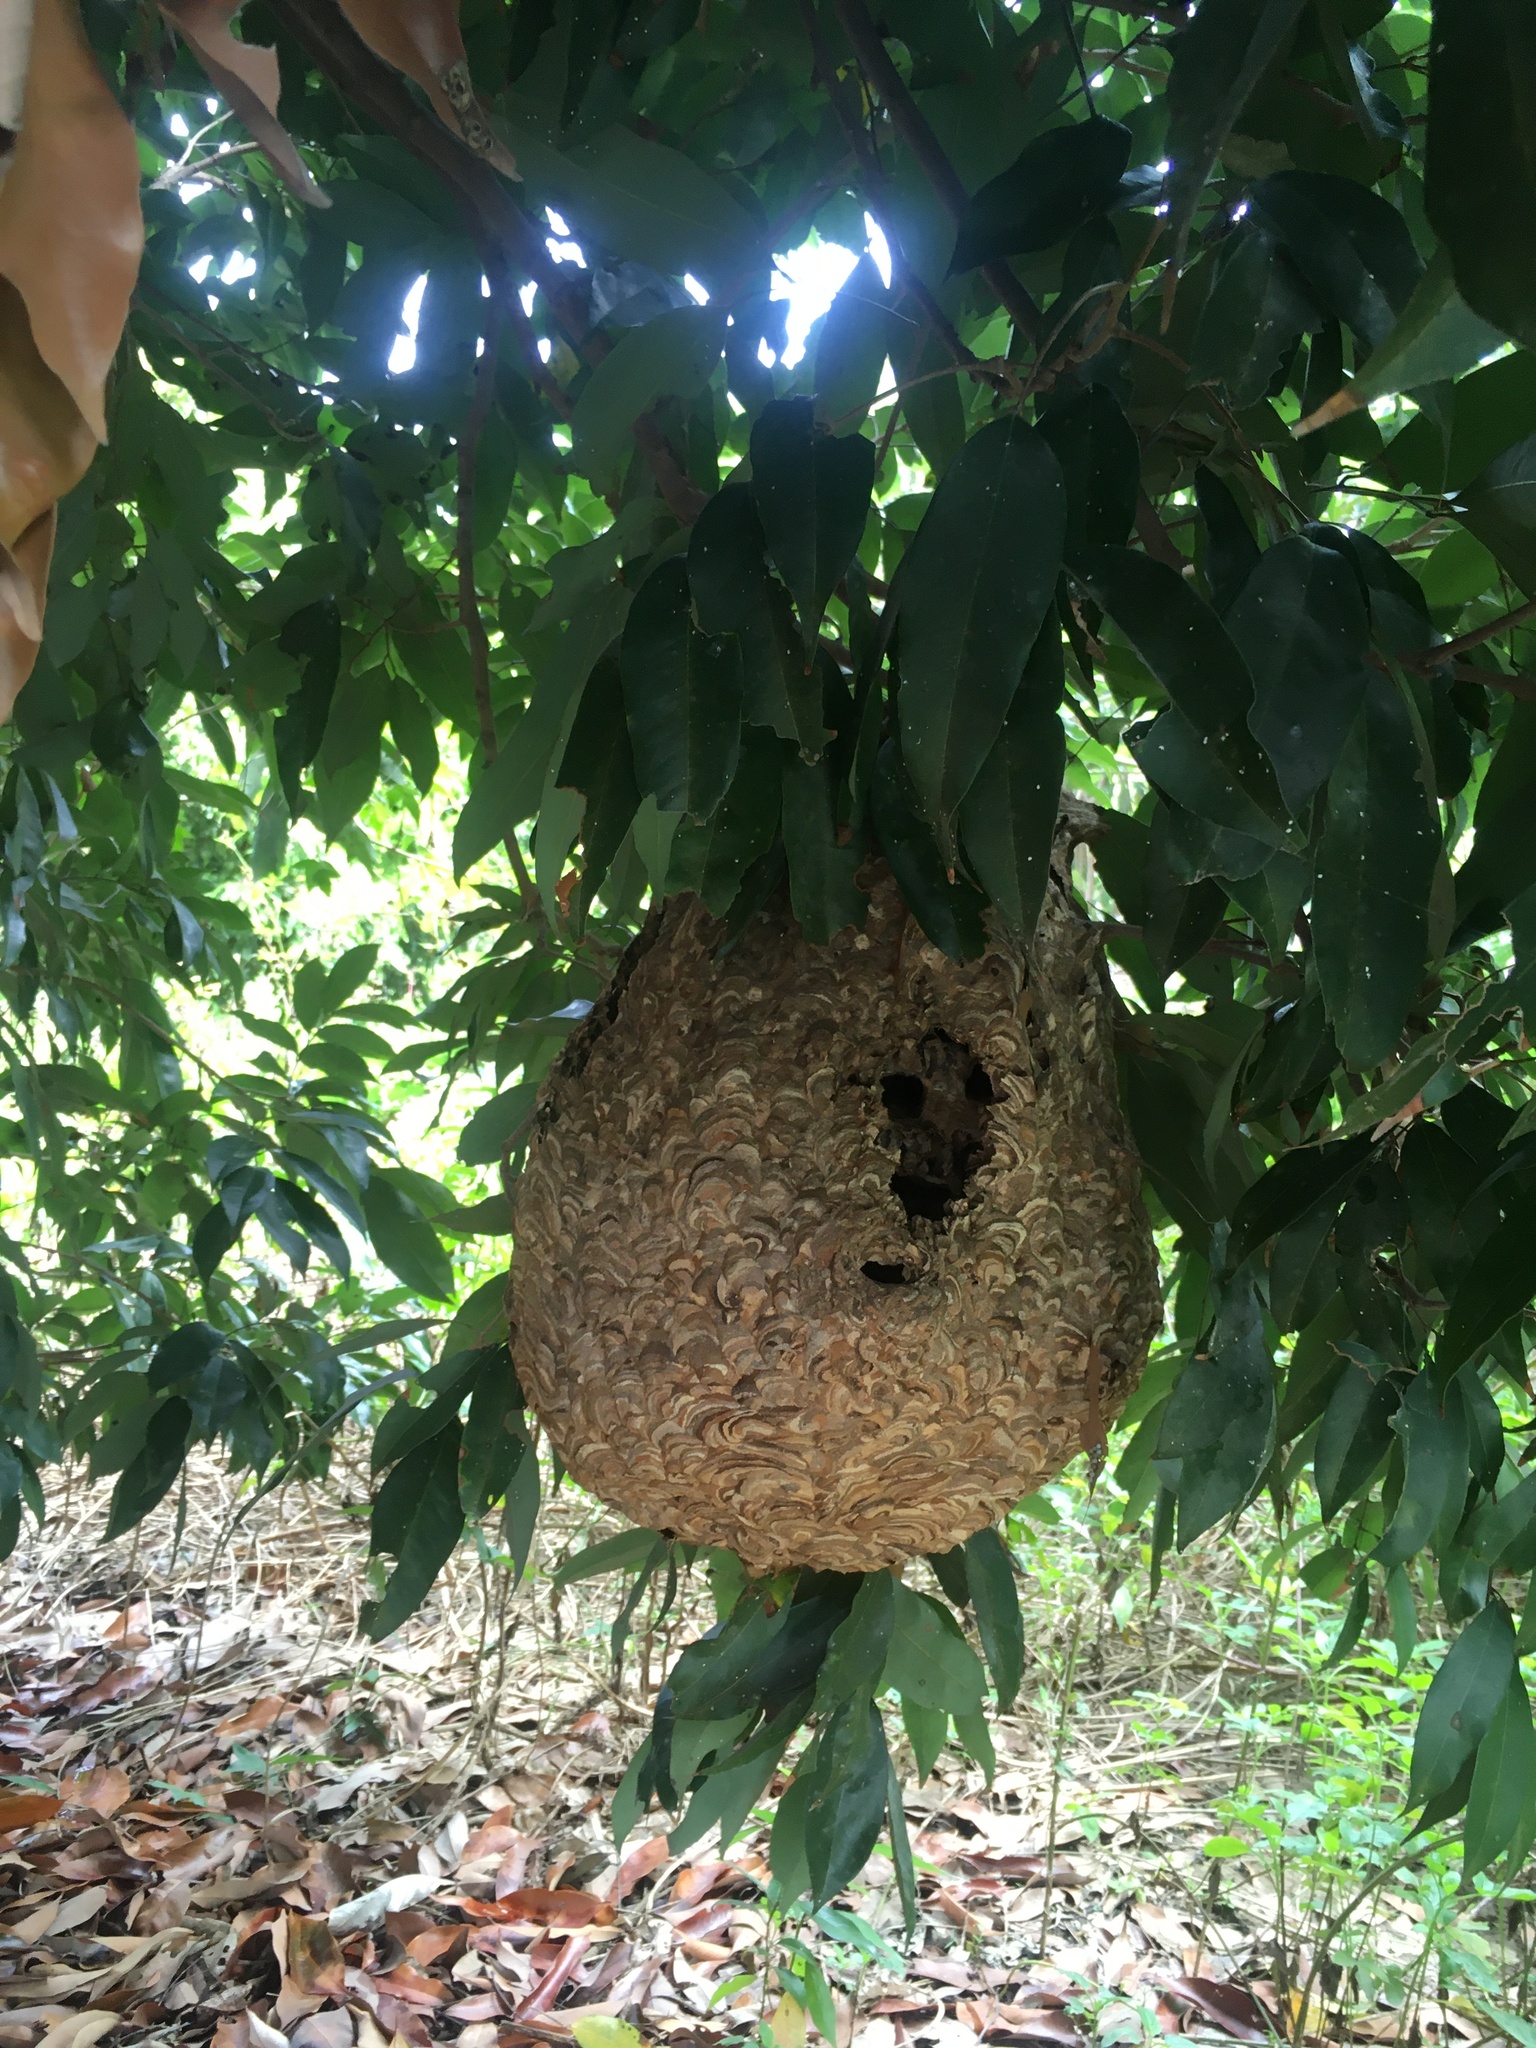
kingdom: Animalia
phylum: Arthropoda
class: Insecta
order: Hymenoptera
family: Vespidae
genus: Vespa
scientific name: Vespa affinis
